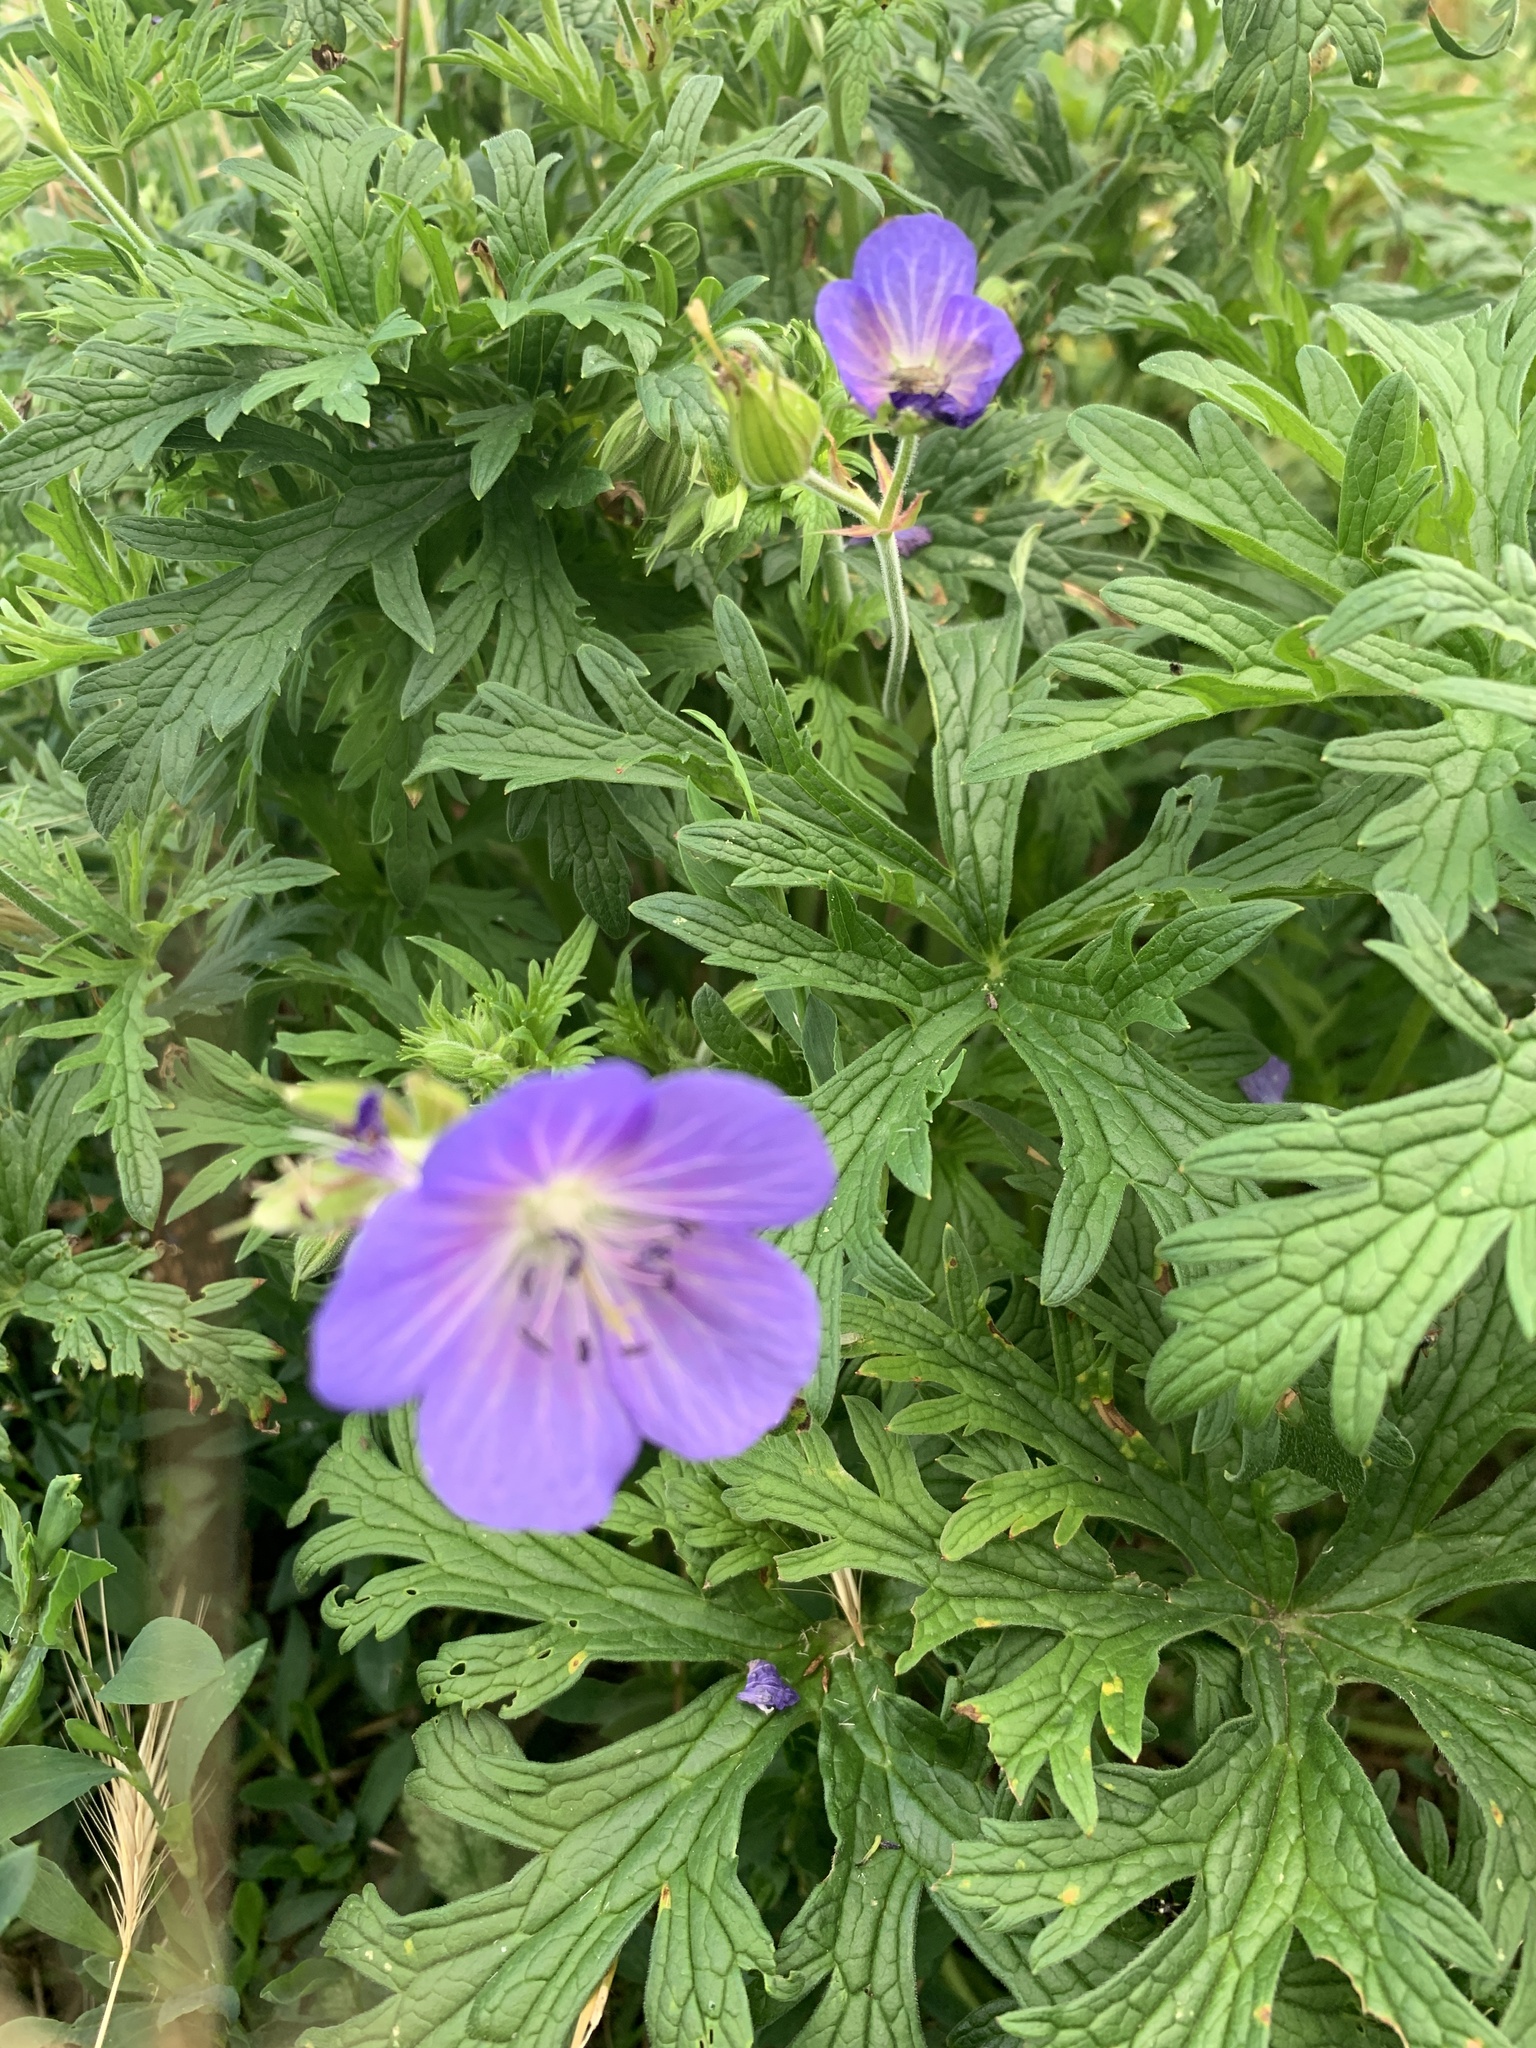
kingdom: Plantae
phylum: Tracheophyta
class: Magnoliopsida
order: Geraniales
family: Geraniaceae
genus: Geranium
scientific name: Geranium pratense
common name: Meadow crane's-bill
